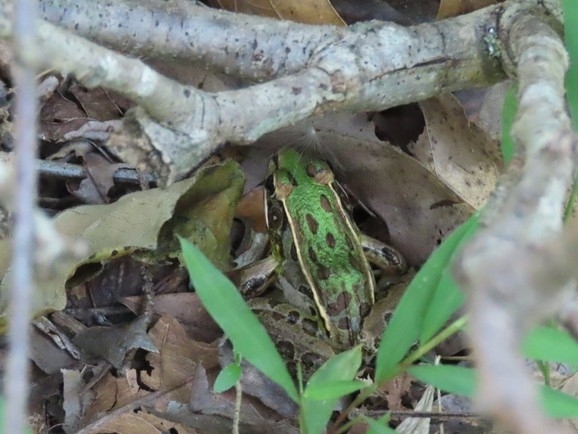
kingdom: Animalia
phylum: Chordata
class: Amphibia
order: Anura
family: Ranidae
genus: Lithobates
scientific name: Lithobates sphenocephalus
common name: Southern leopard frog
